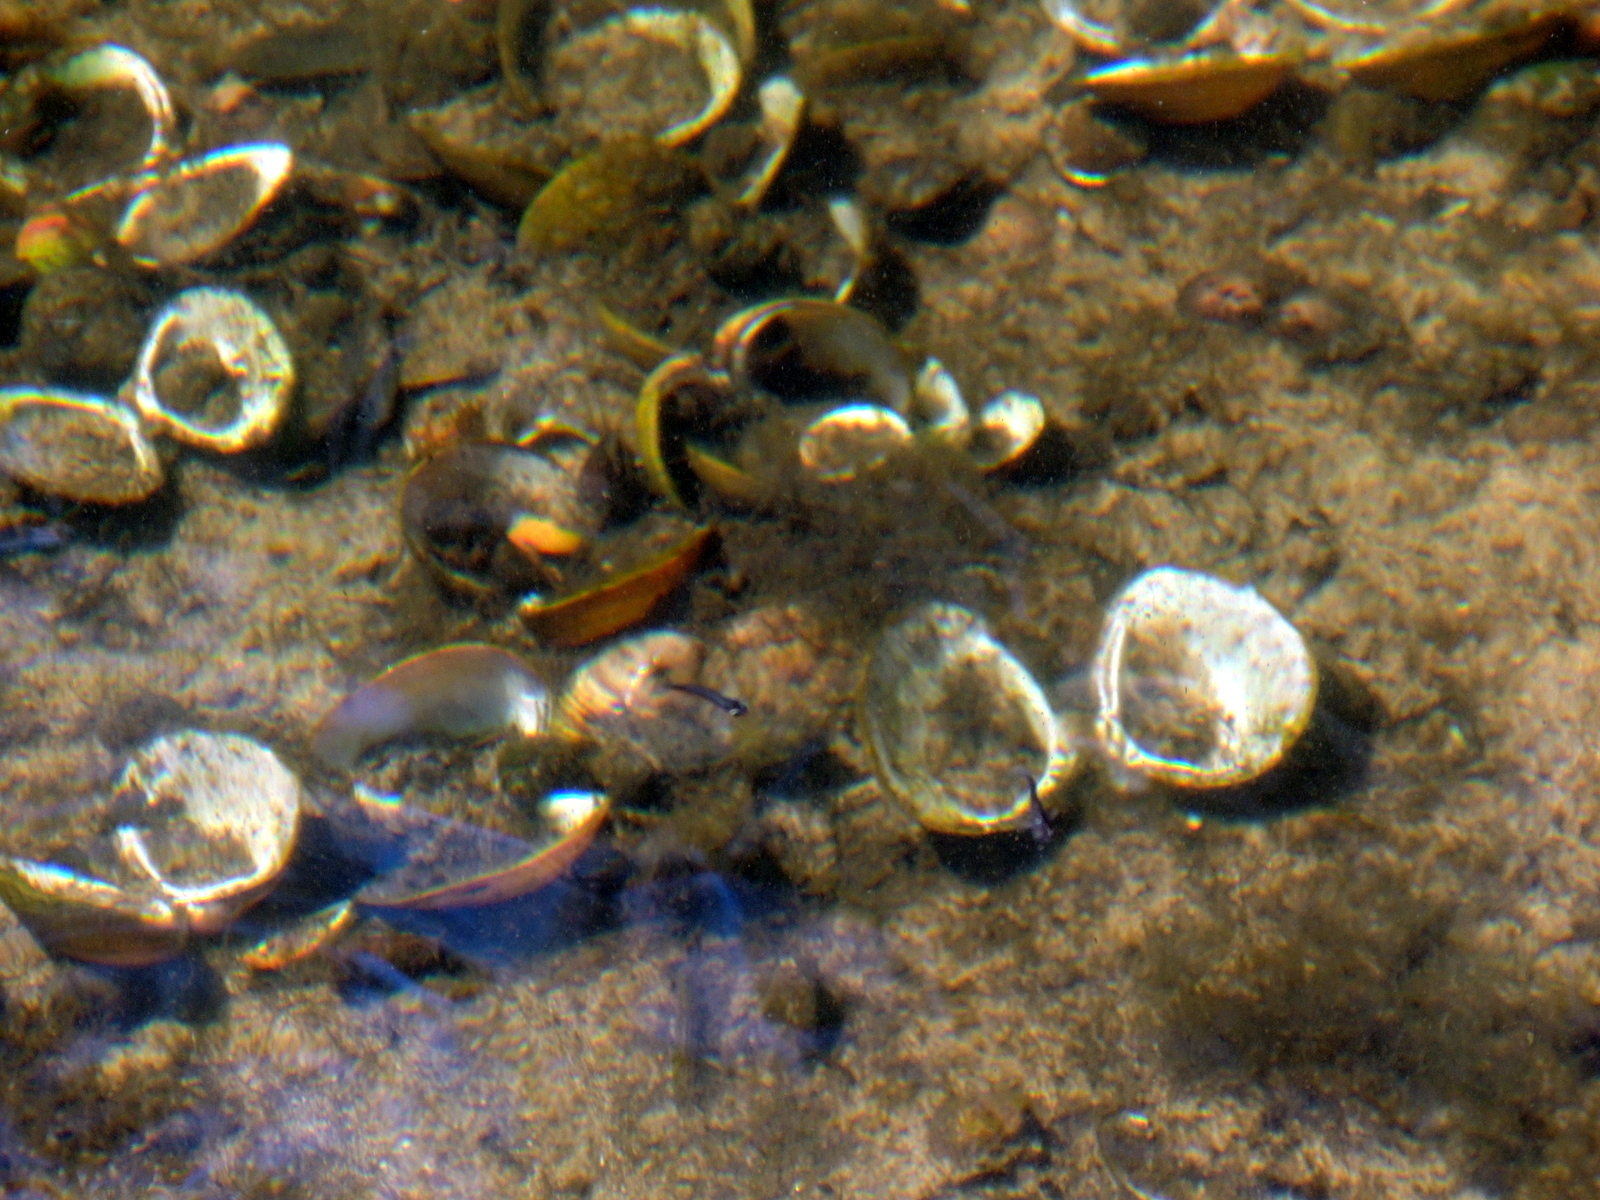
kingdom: Animalia
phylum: Mollusca
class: Bivalvia
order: Venerida
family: Cyrenidae
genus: Corbicula
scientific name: Corbicula fluminea
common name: Asian clam
